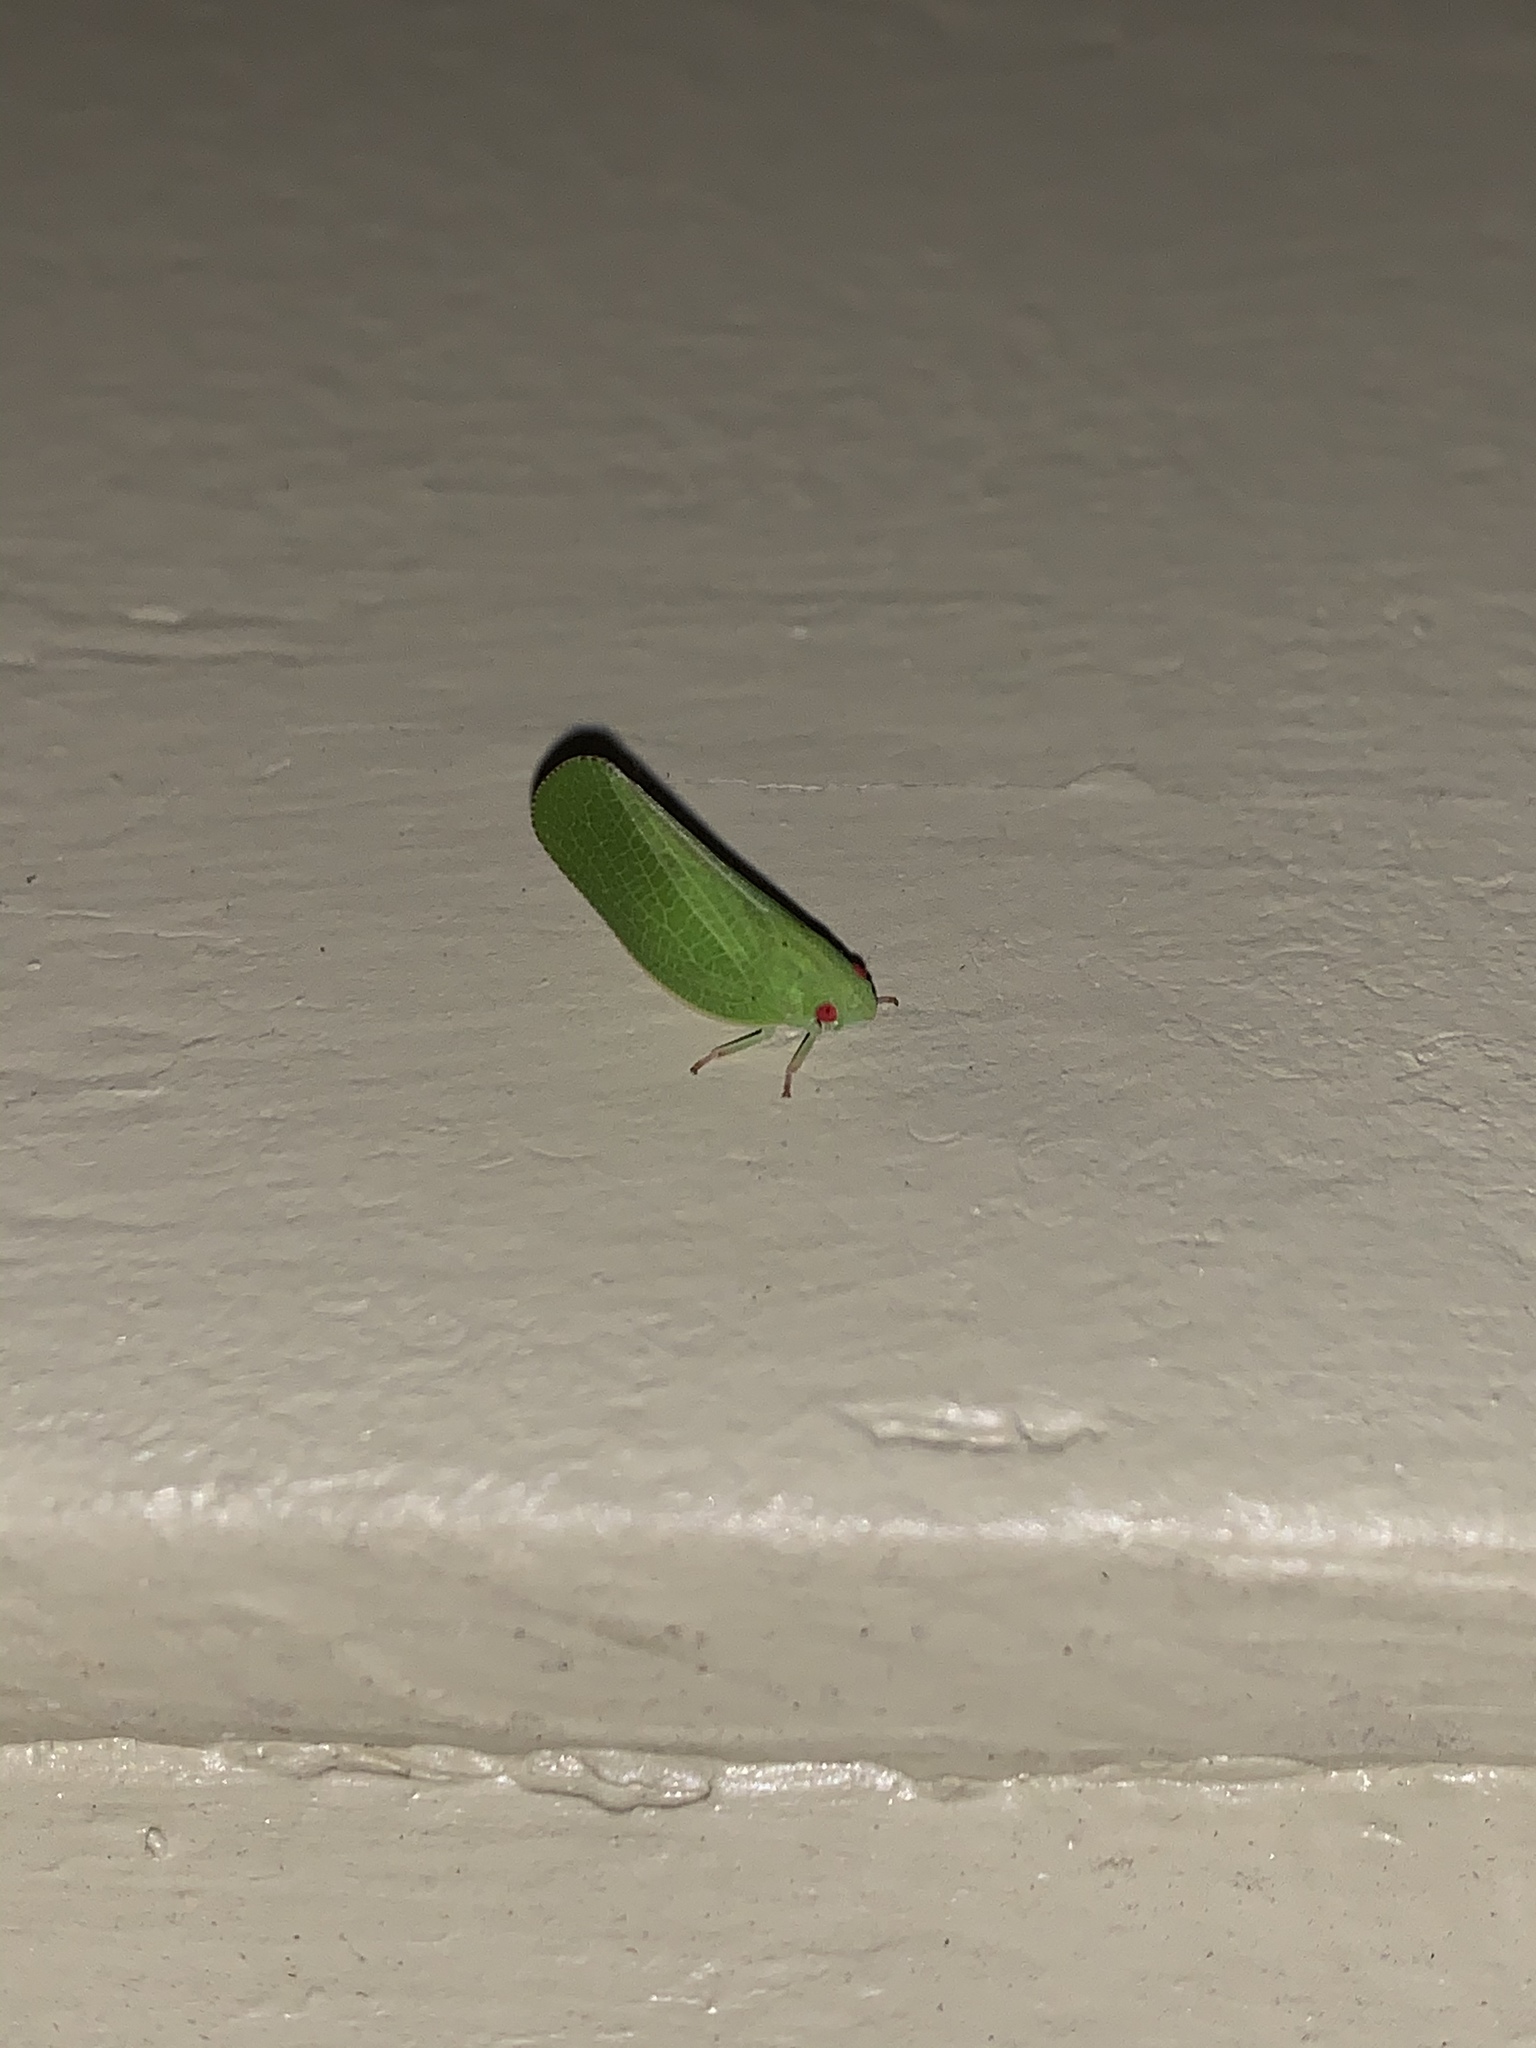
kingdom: Animalia
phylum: Arthropoda
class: Insecta
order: Hemiptera
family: Acanaloniidae
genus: Acanalonia
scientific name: Acanalonia conica
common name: Green cone-headed planthopper
